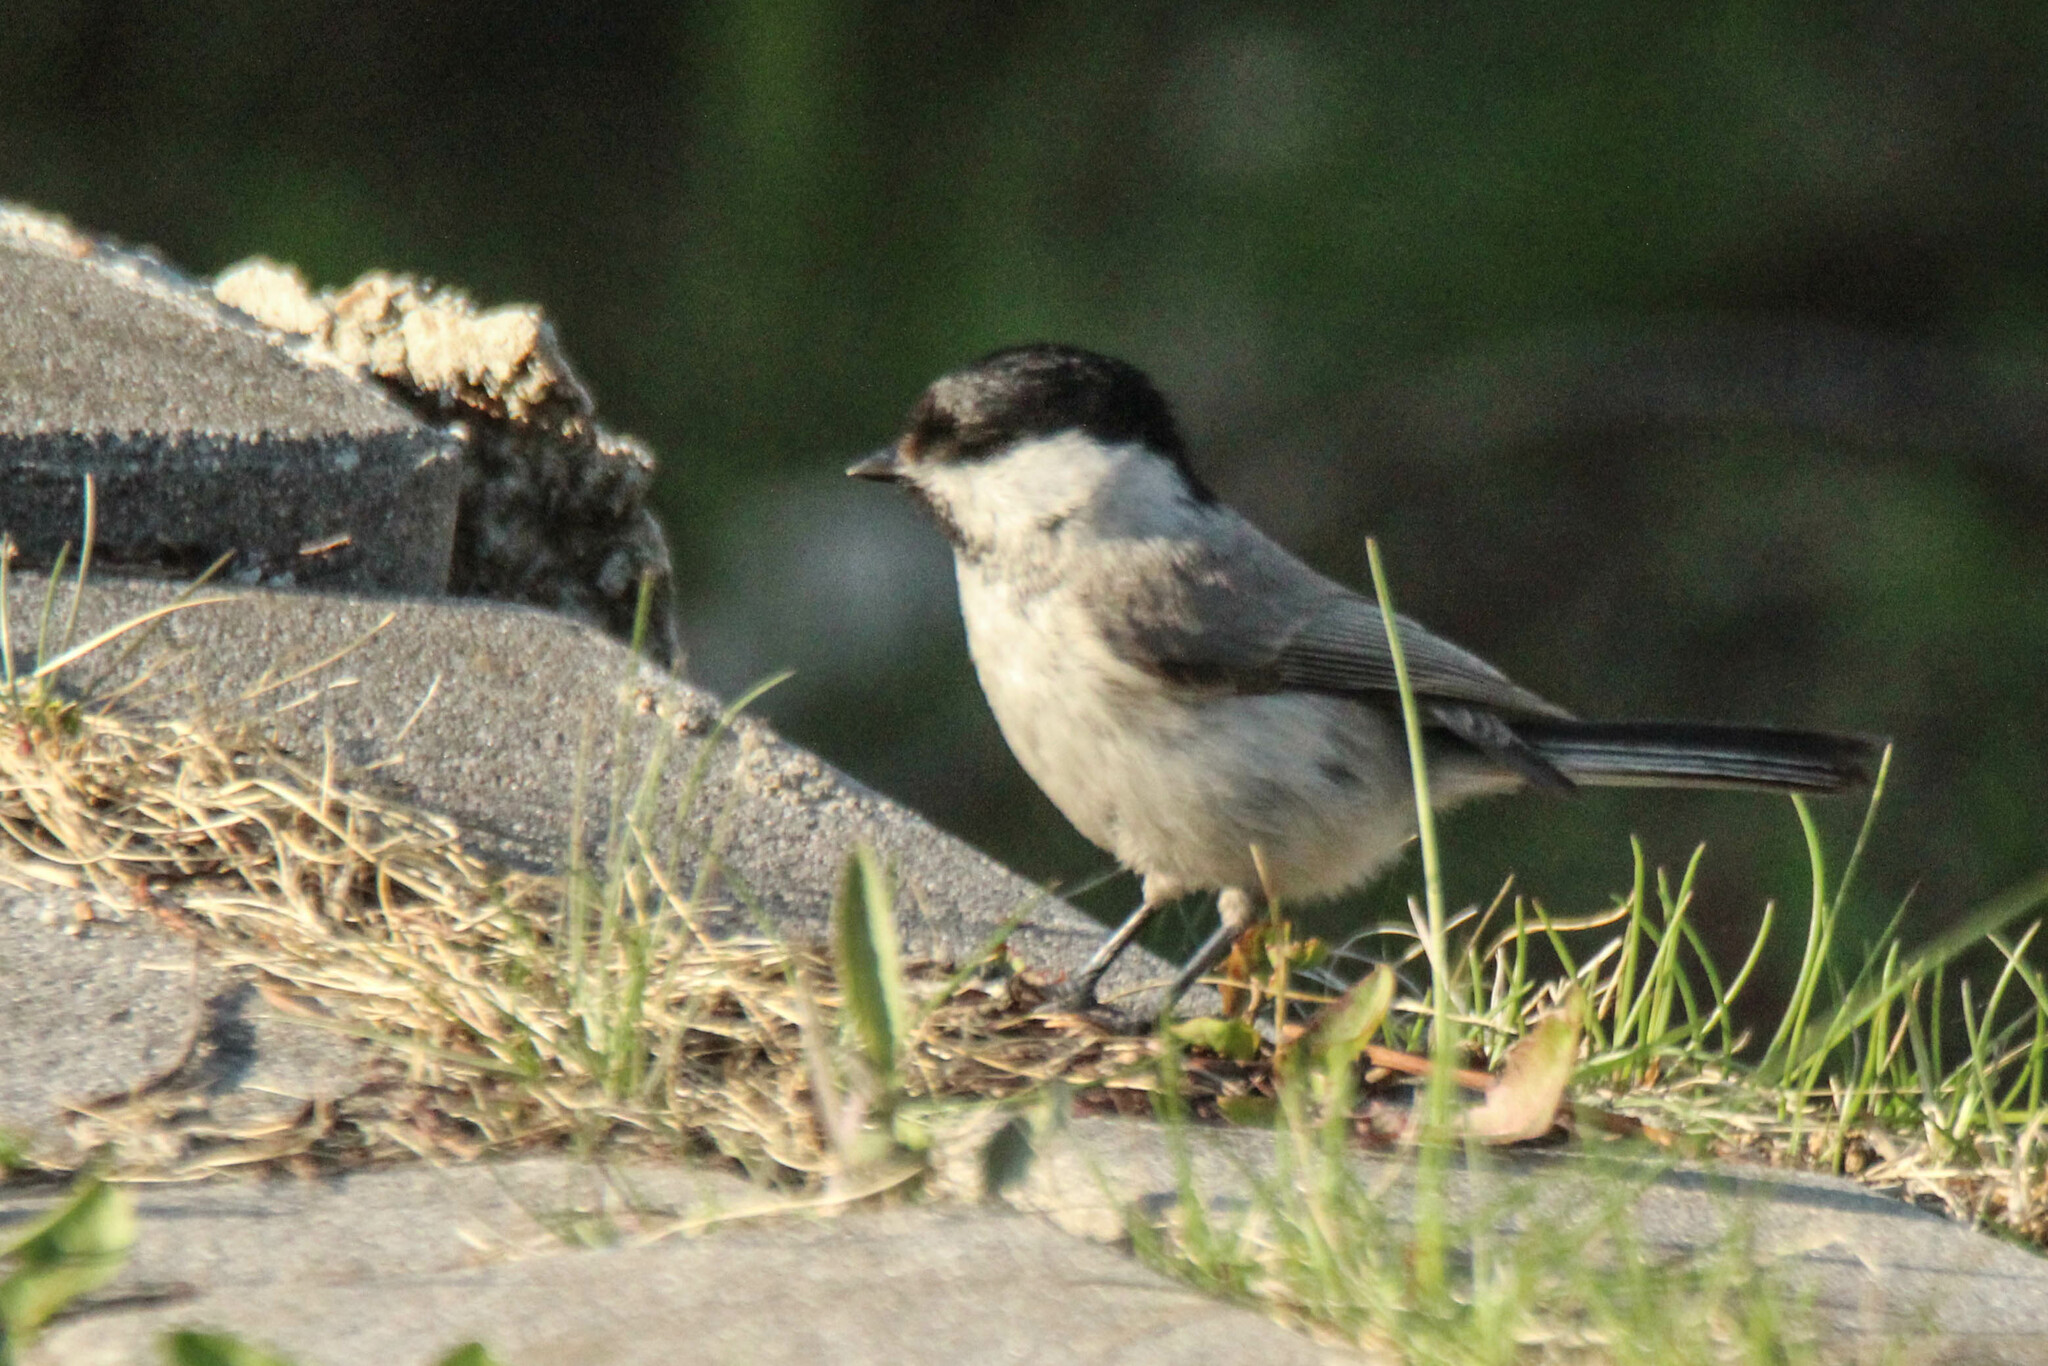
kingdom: Animalia
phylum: Chordata
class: Aves
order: Passeriformes
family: Paridae
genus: Poecile
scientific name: Poecile palustris
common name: Marsh tit
